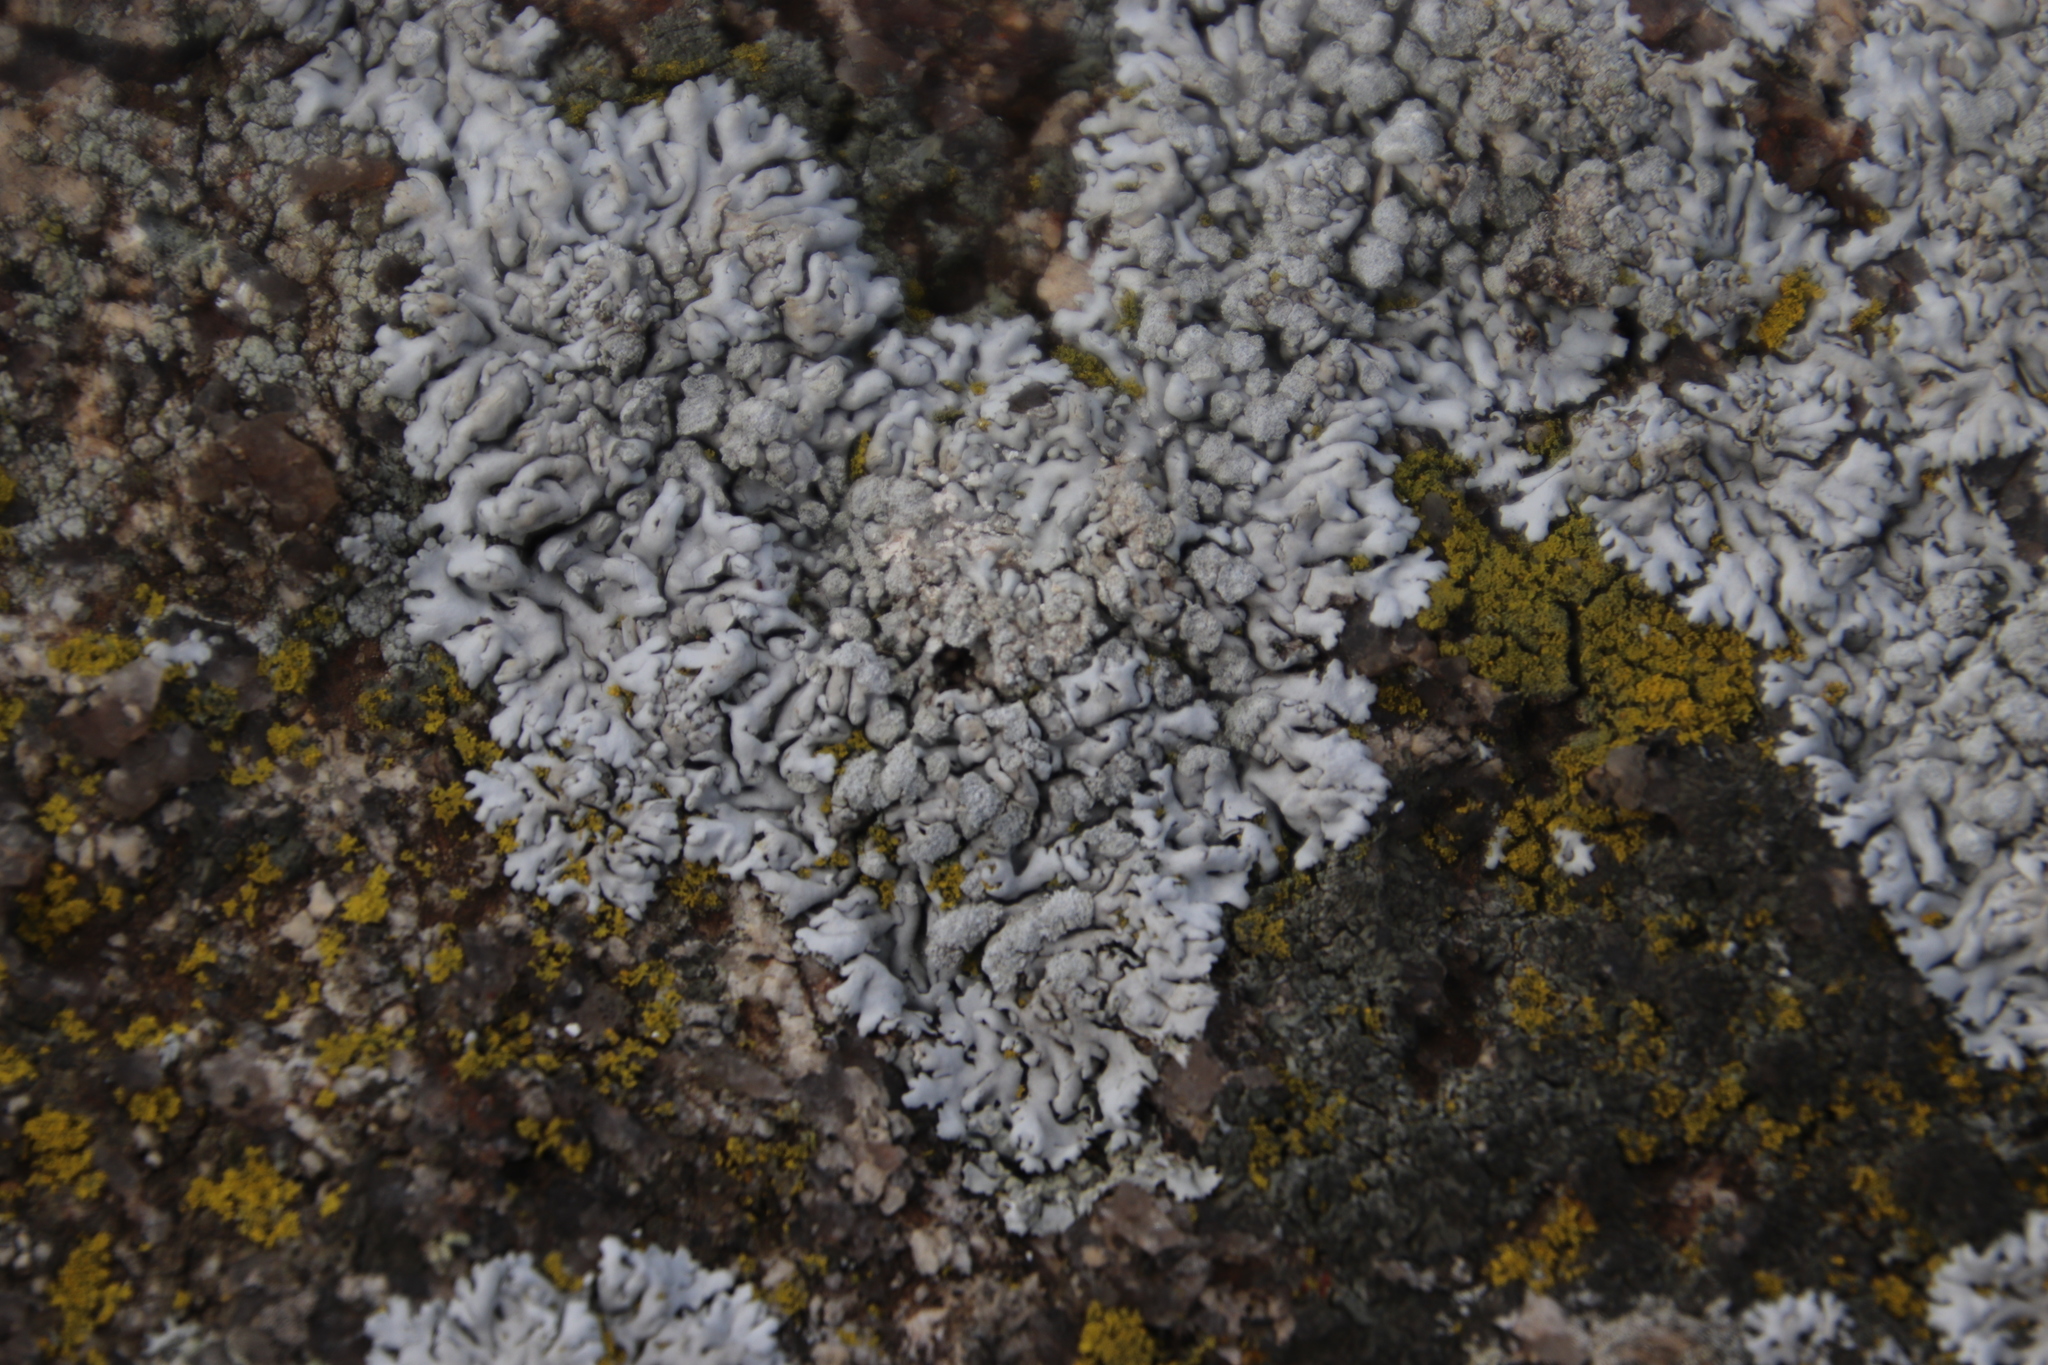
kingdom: Fungi
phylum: Ascomycota
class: Lecanoromycetes
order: Caliciales
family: Physciaceae
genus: Physcia
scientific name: Physcia caesia
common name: Blue-gray rosette lichen
